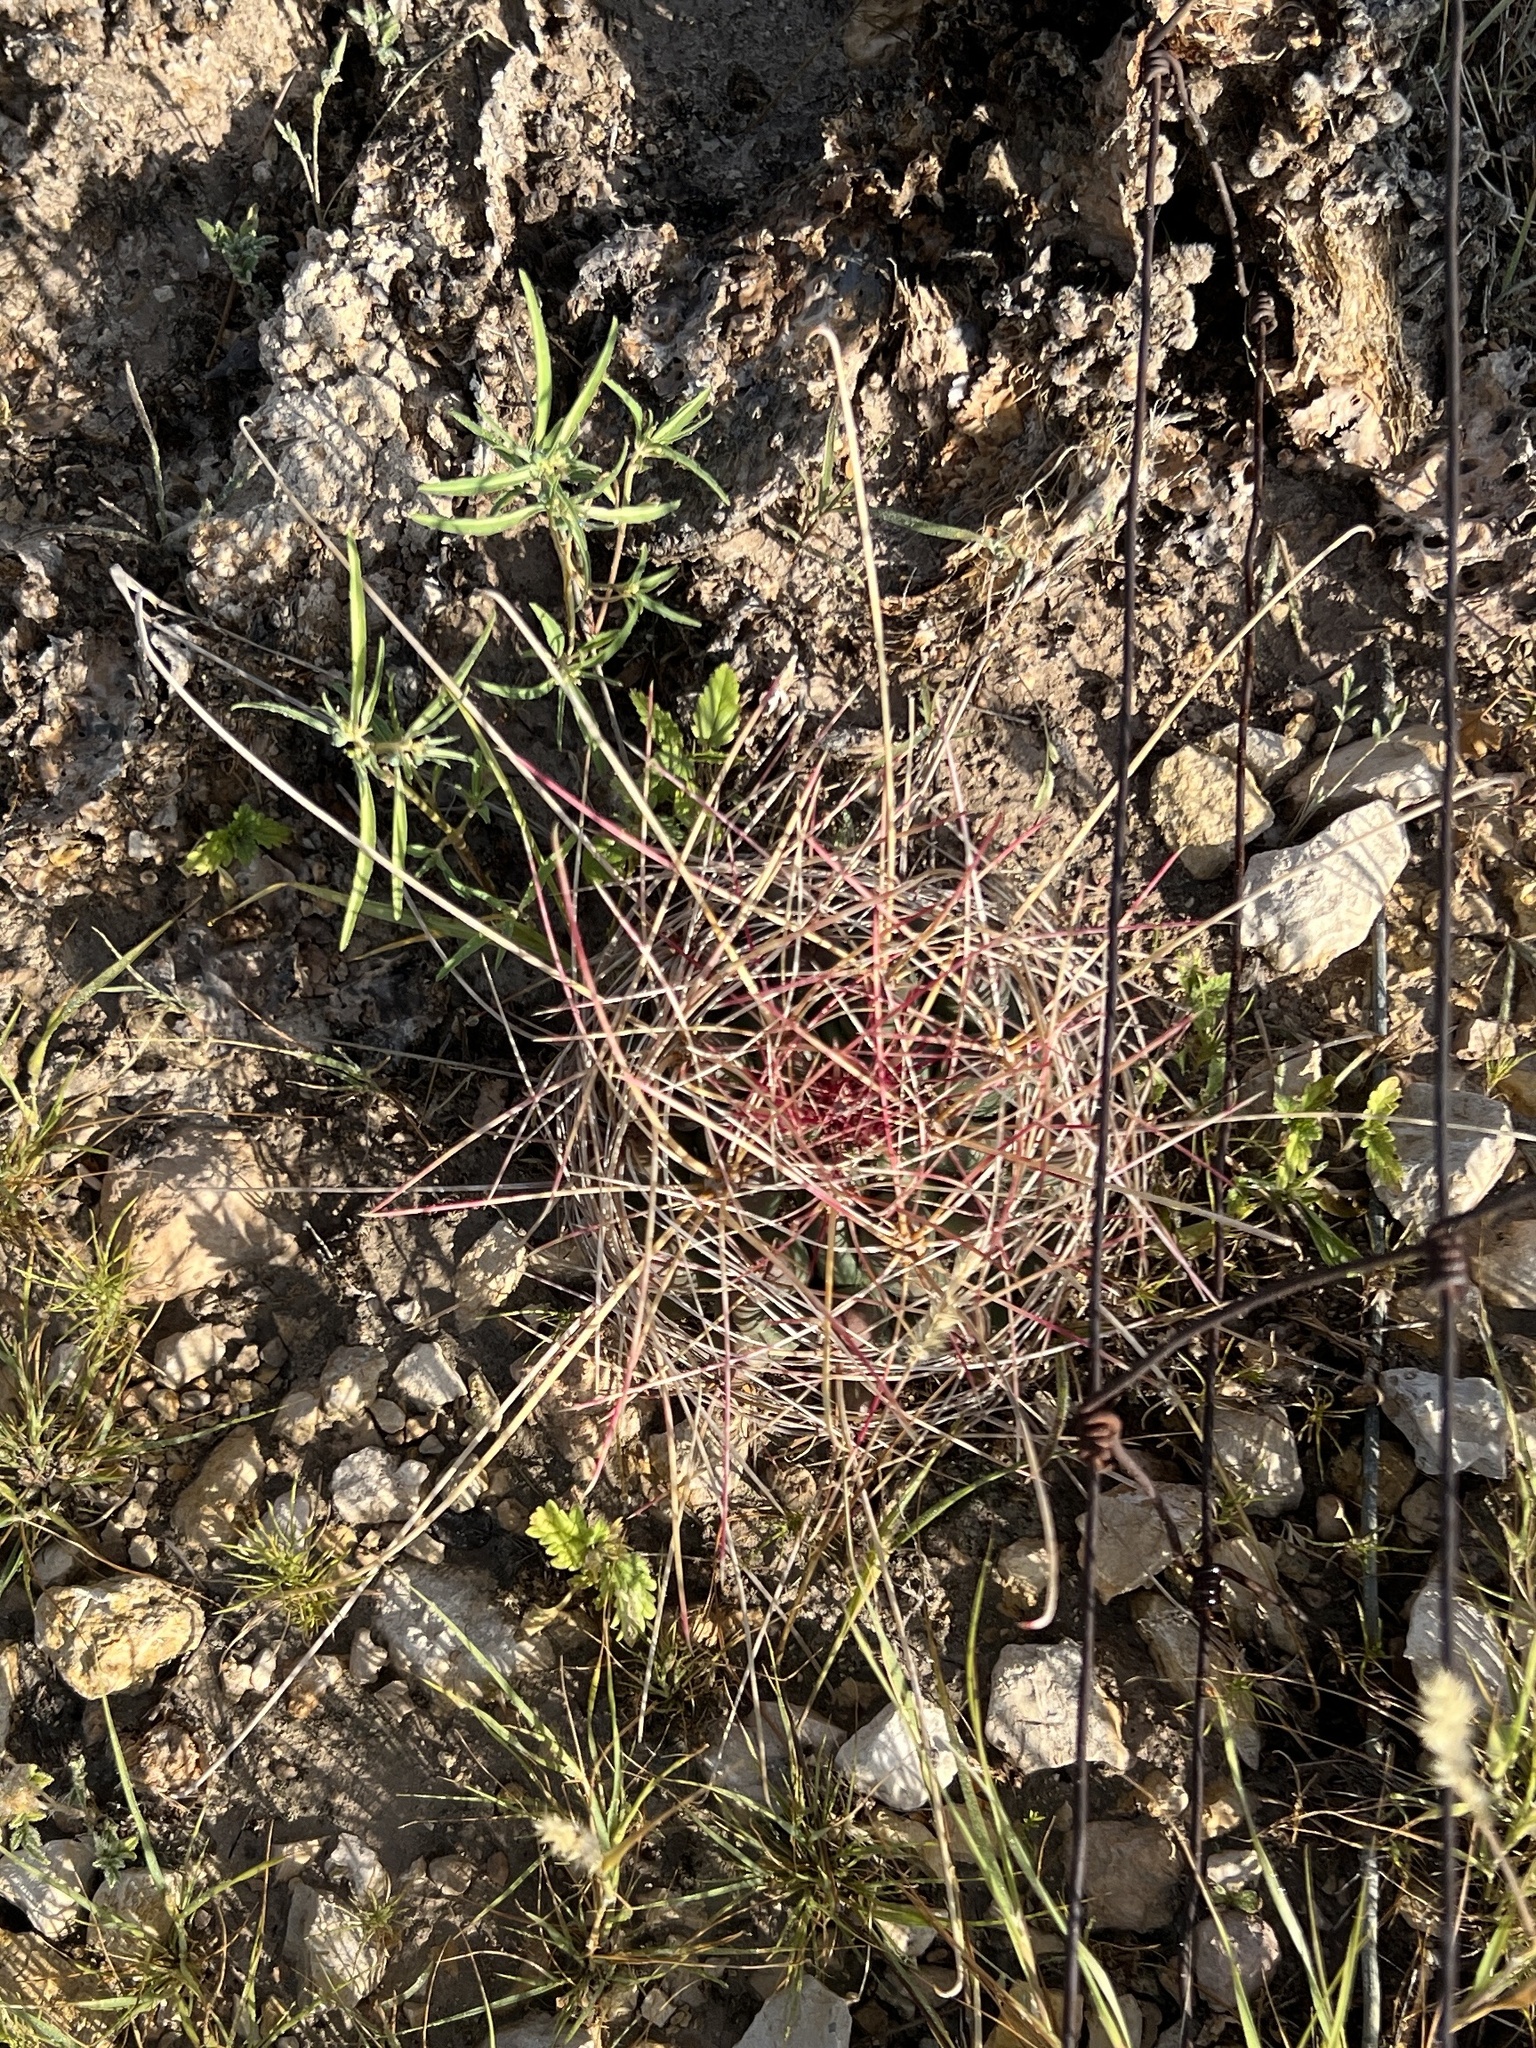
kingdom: Plantae
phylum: Tracheophyta
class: Magnoliopsida
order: Caryophyllales
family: Cactaceae
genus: Bisnaga
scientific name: Bisnaga hamatacantha
